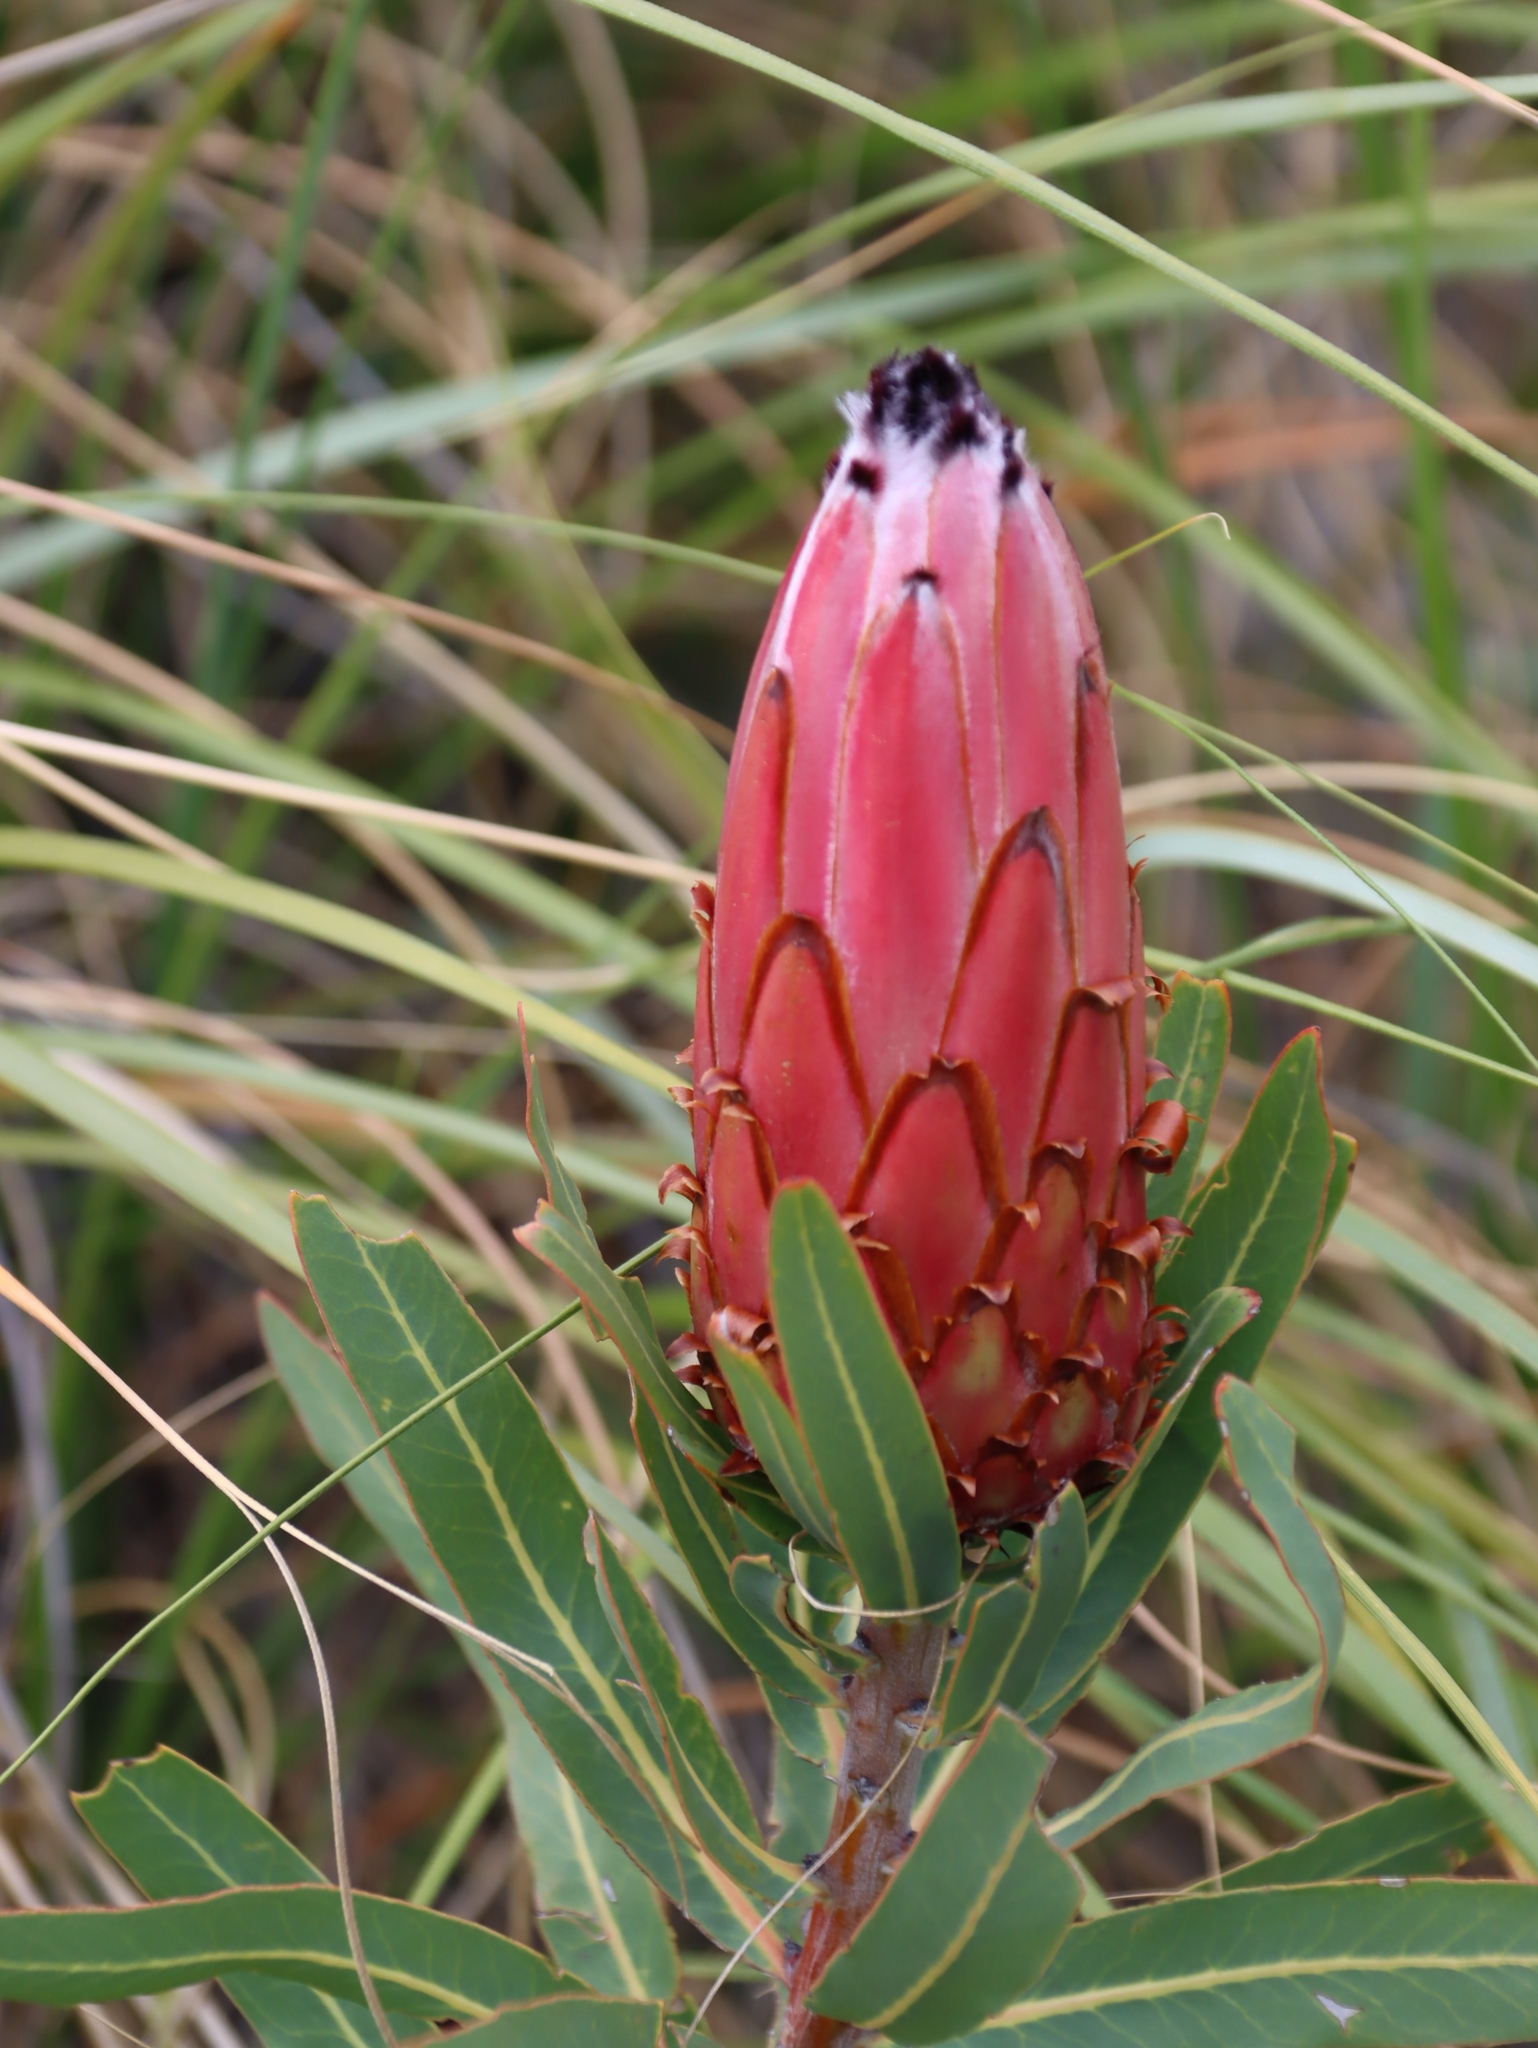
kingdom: Plantae
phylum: Tracheophyta
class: Magnoliopsida
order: Proteales
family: Proteaceae
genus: Protea
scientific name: Protea neriifolia
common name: Blue sugarbush
